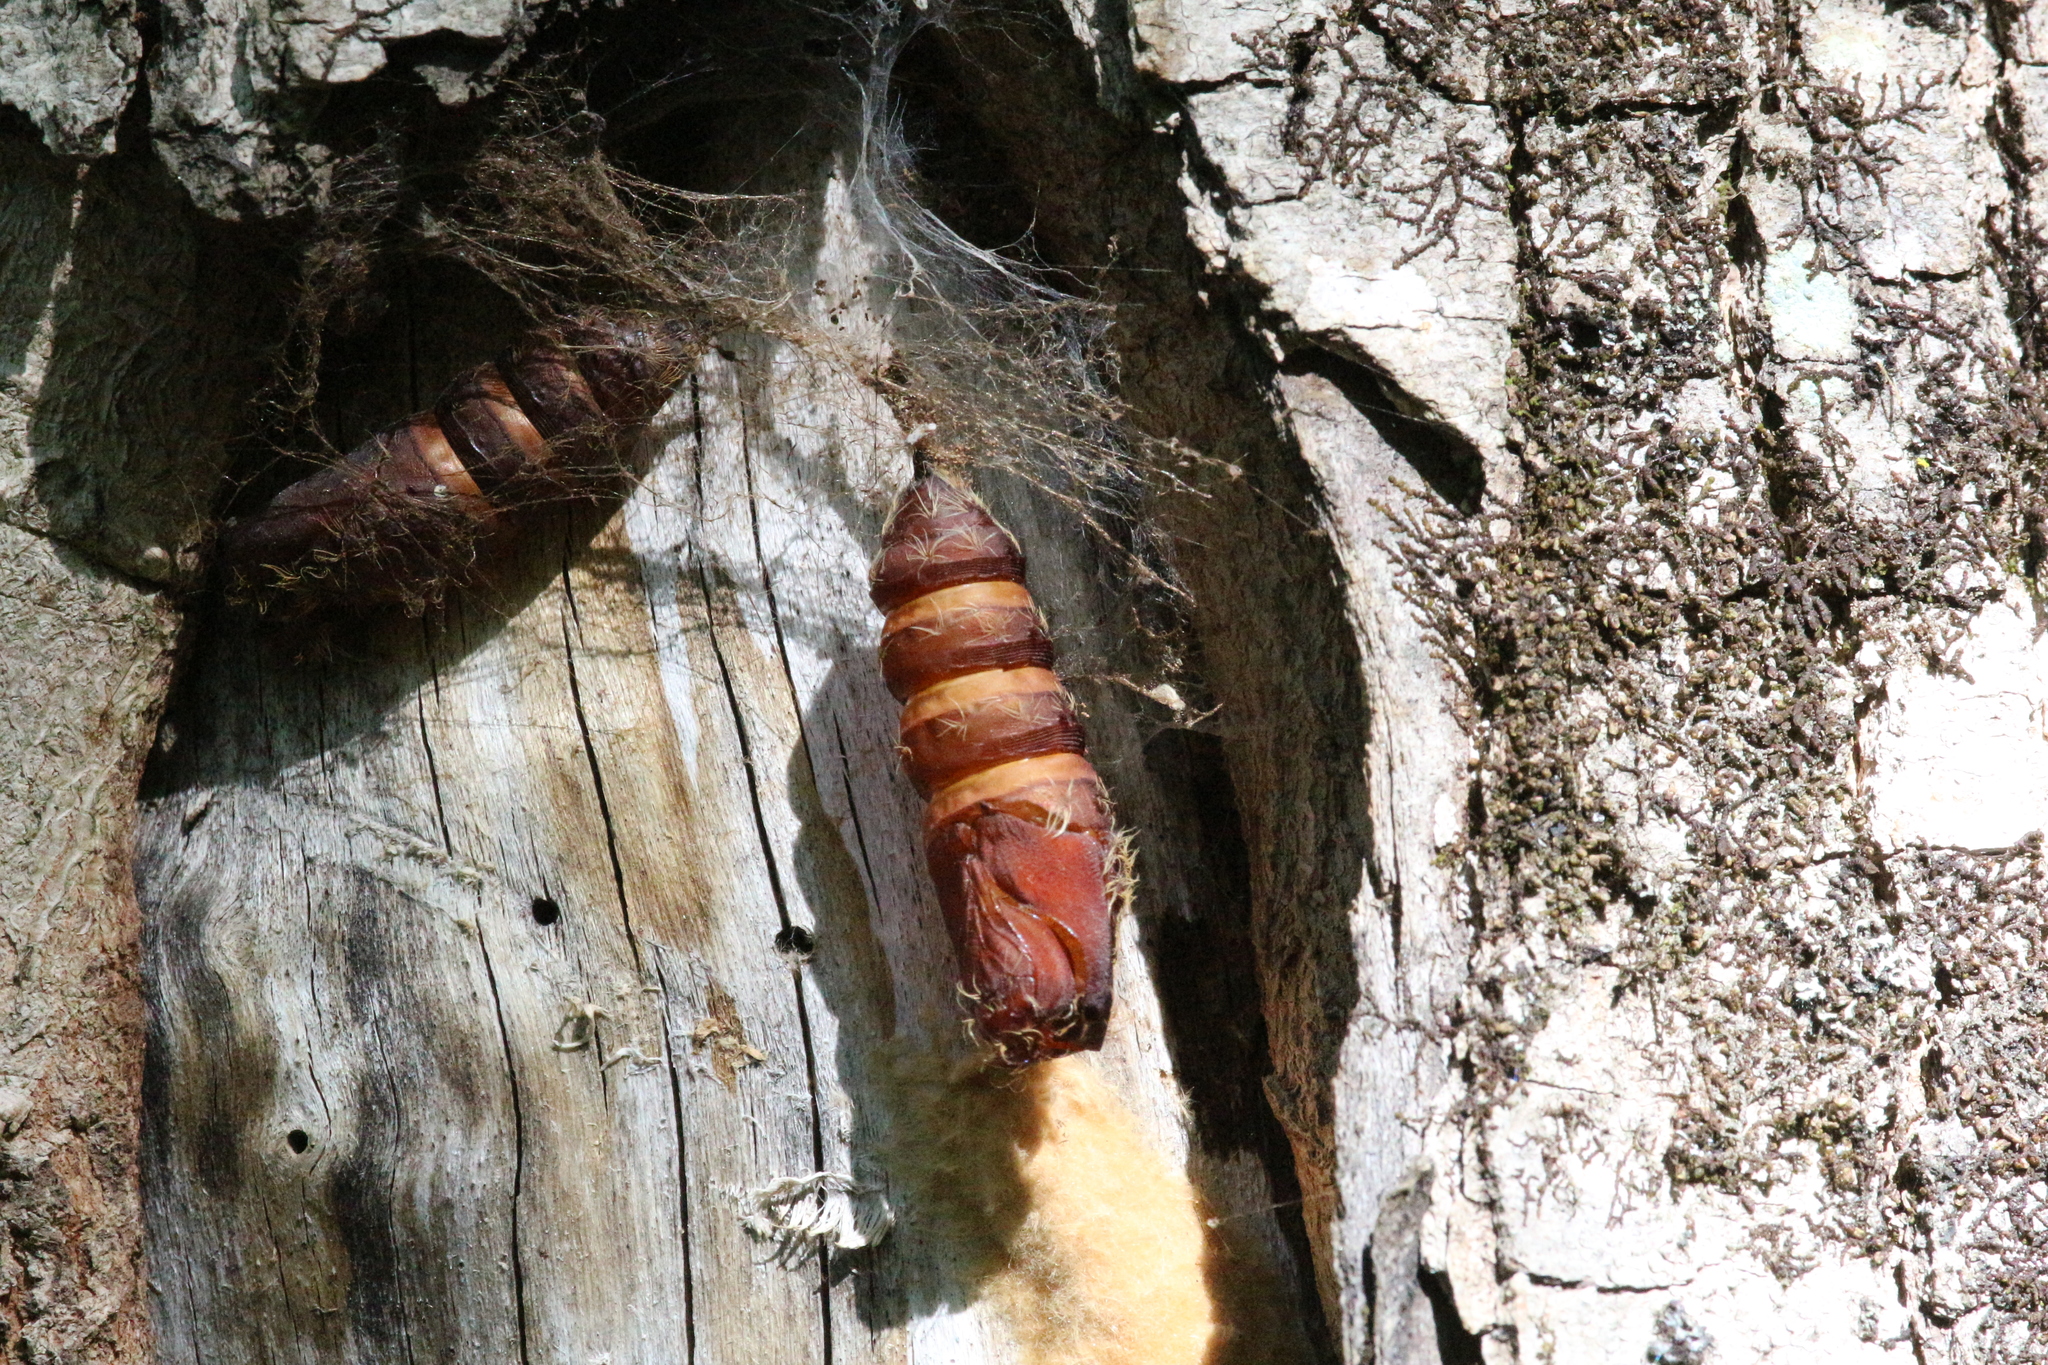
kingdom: Animalia
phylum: Arthropoda
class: Insecta
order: Lepidoptera
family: Erebidae
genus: Lymantria
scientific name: Lymantria dispar
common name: Gypsy moth
